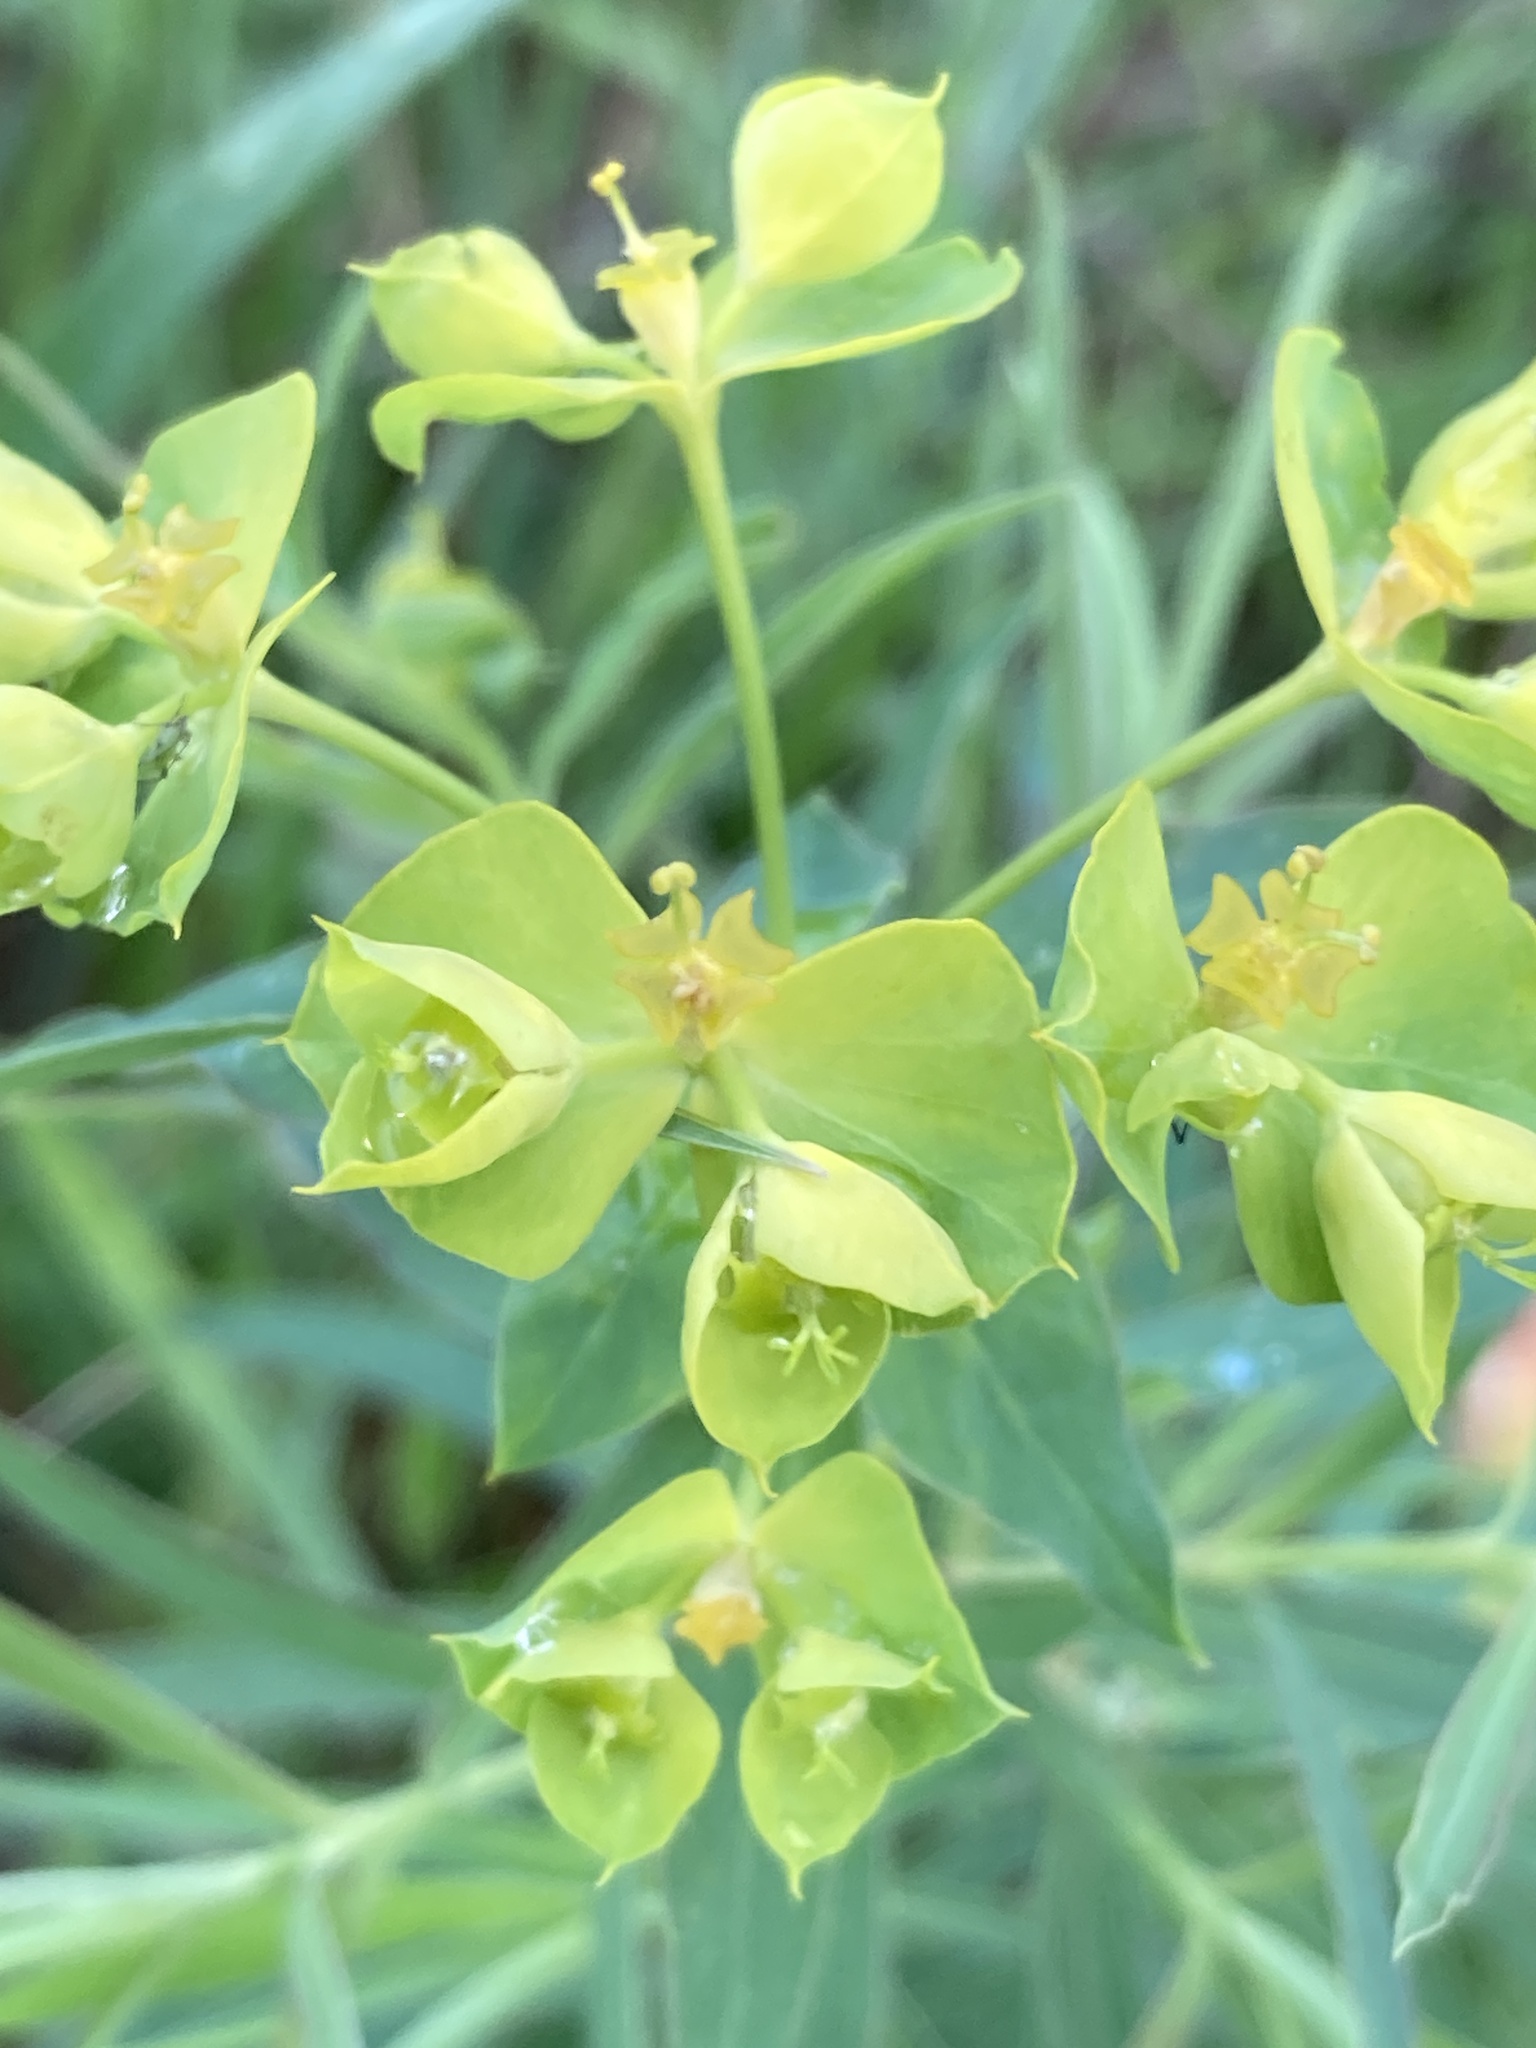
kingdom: Plantae
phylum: Tracheophyta
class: Magnoliopsida
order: Malpighiales
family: Euphorbiaceae
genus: Euphorbia
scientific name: Euphorbia virgata
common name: Leafy spurge
